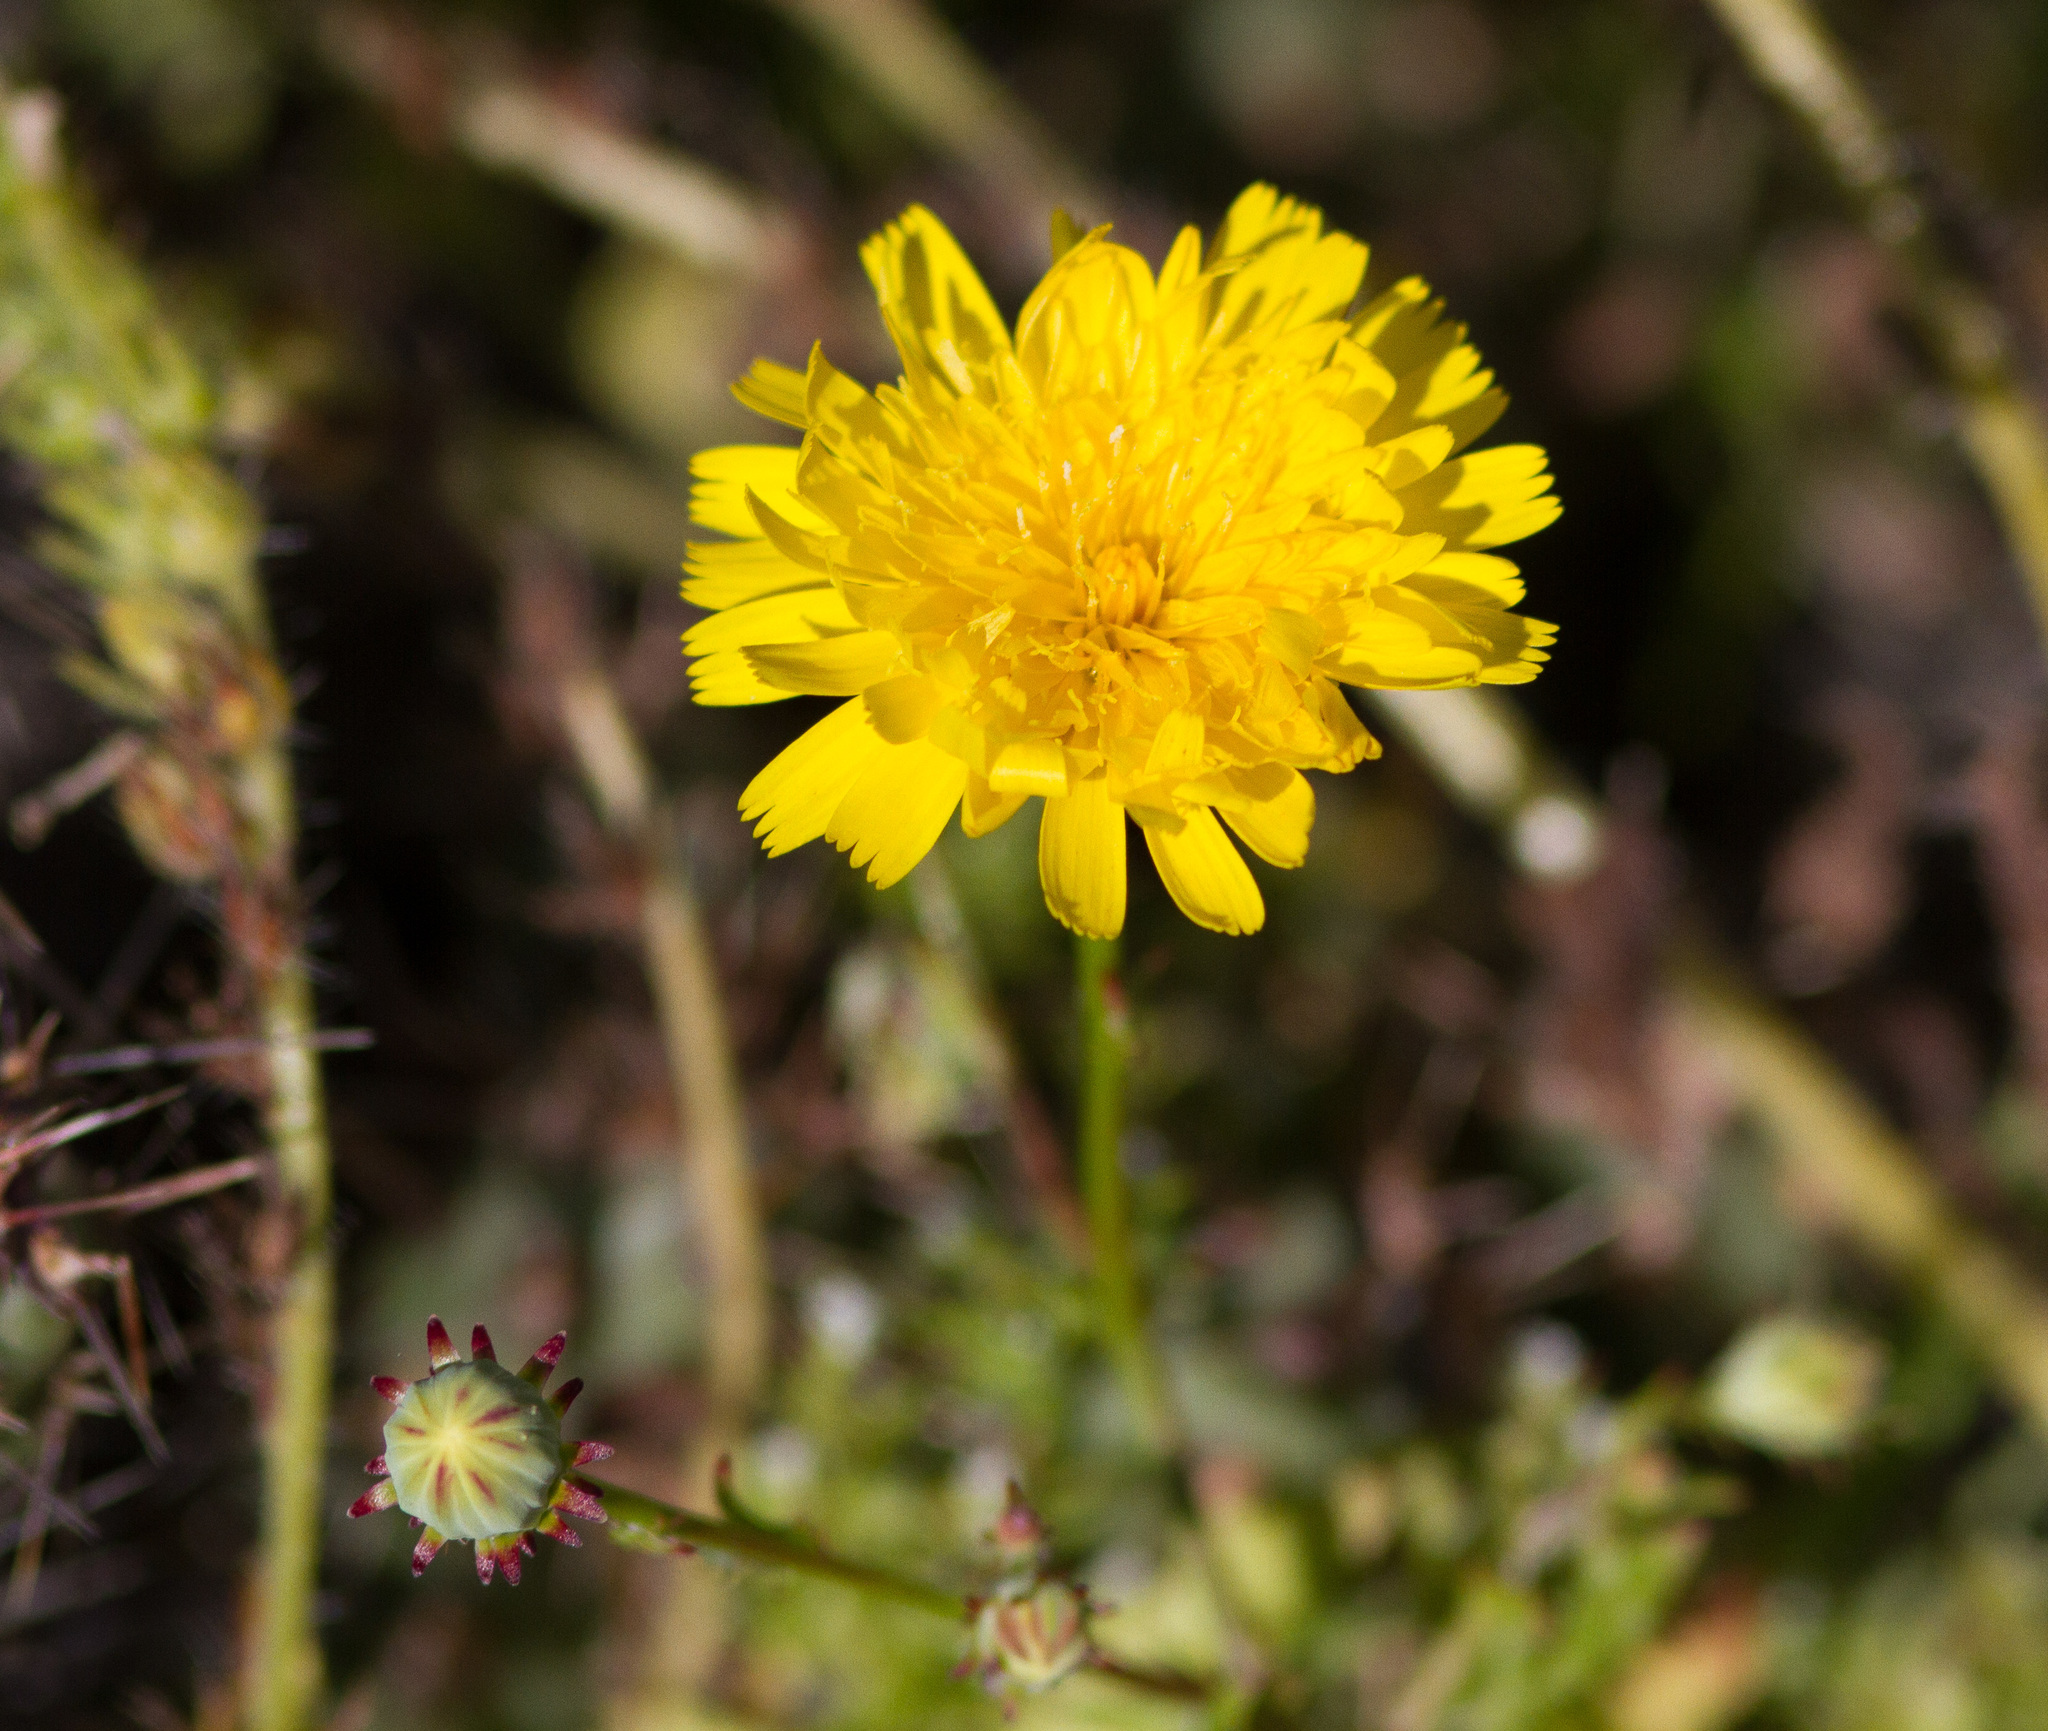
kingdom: Plantae
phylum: Tracheophyta
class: Magnoliopsida
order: Asterales
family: Asteraceae
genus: Malacothrix
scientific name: Malacothrix foliosa
